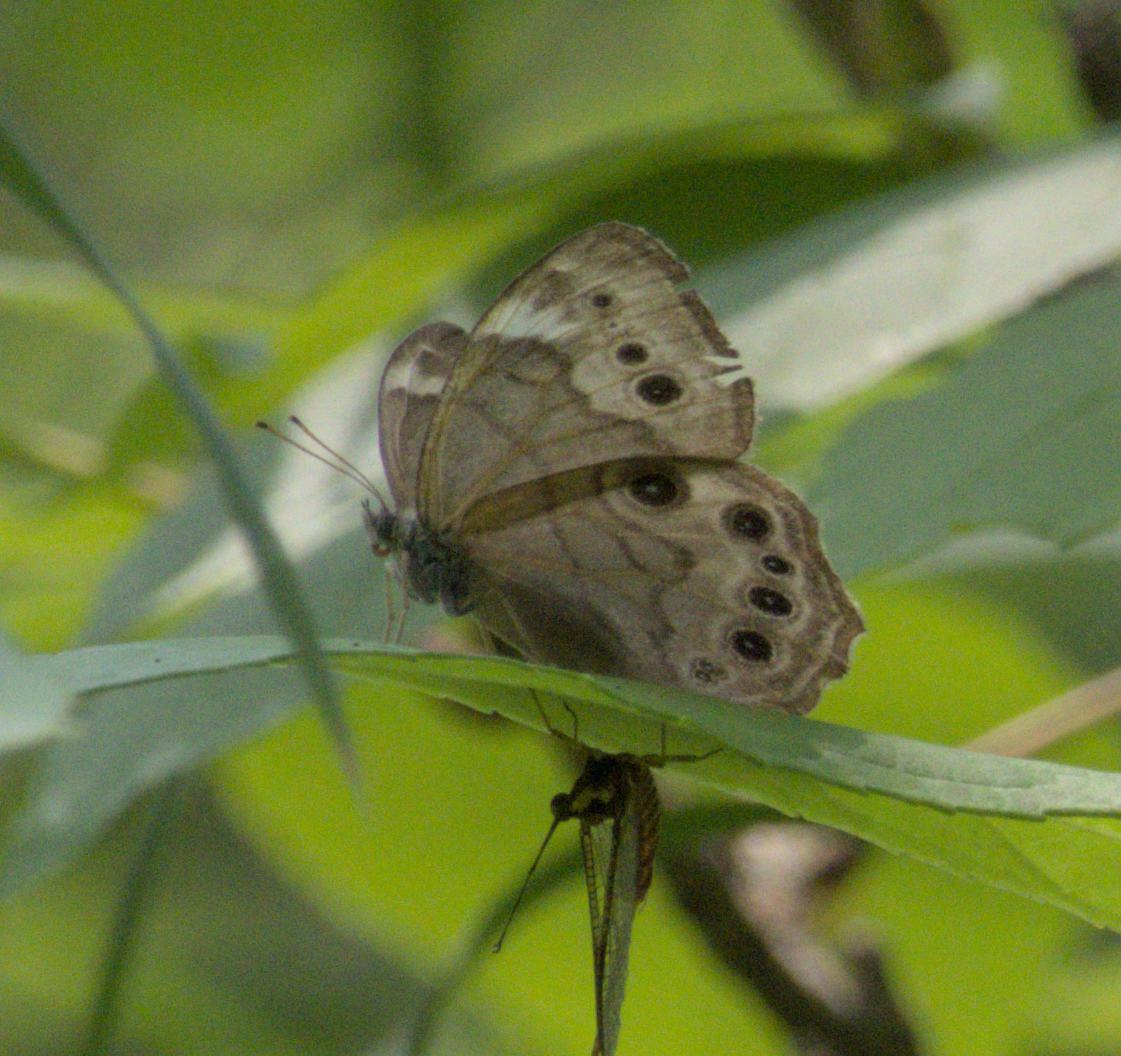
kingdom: Animalia
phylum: Arthropoda
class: Insecta
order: Lepidoptera
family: Nymphalidae
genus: Lethe
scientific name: Lethe anthedon
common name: Northern pearly-eye
